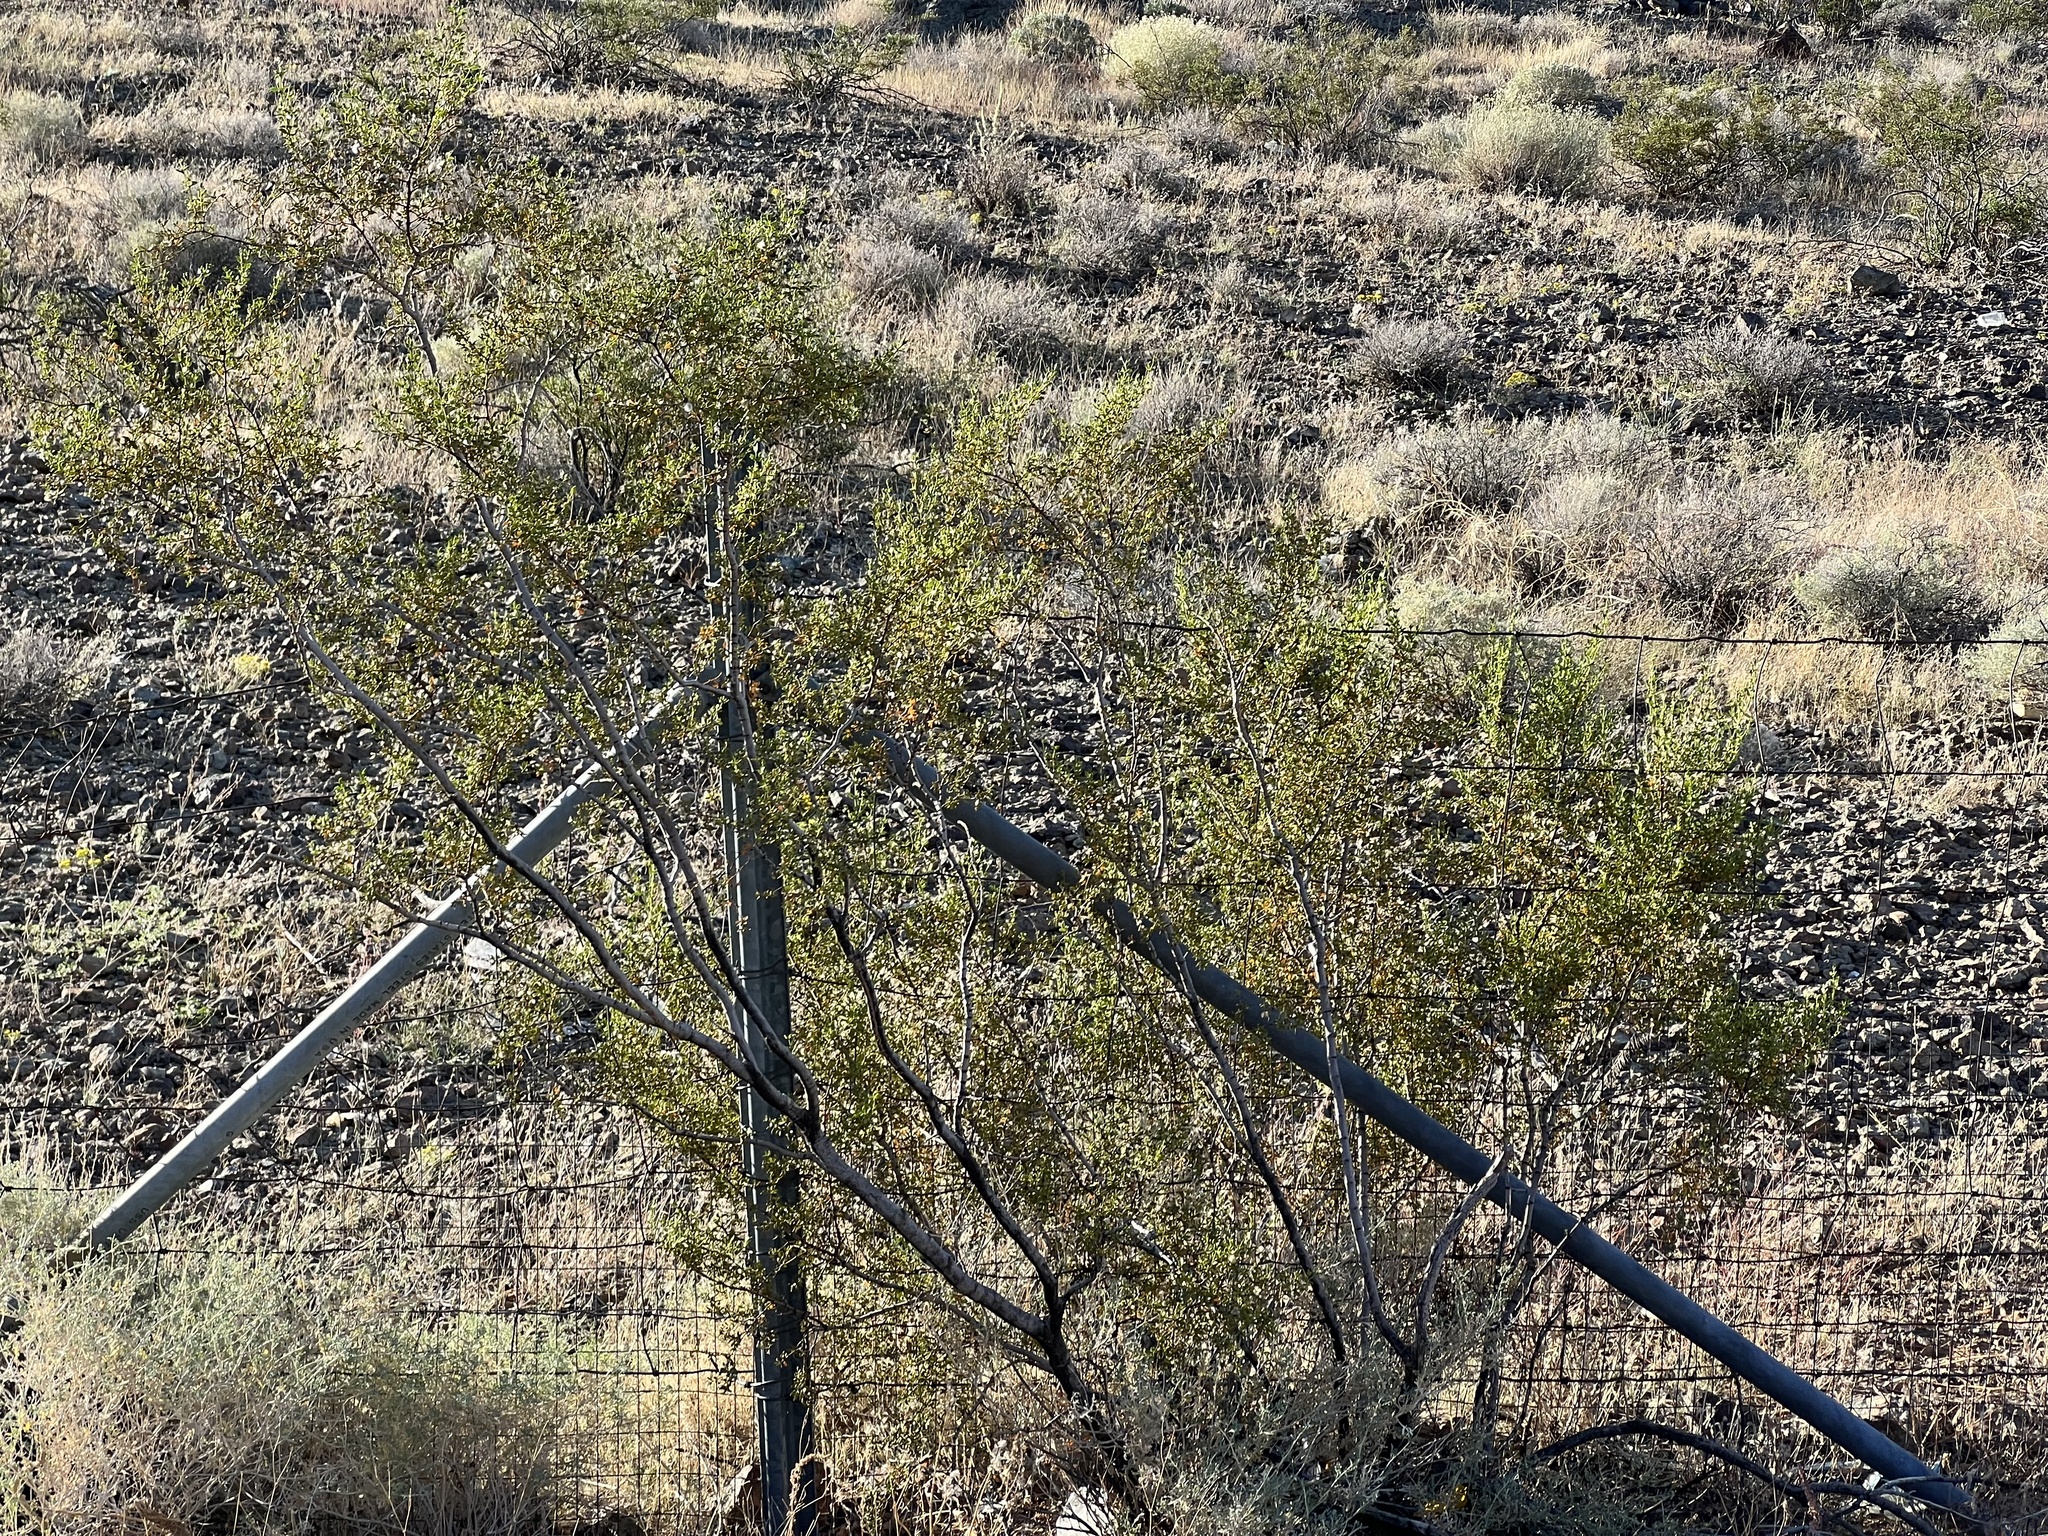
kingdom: Plantae
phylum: Tracheophyta
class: Magnoliopsida
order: Zygophyllales
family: Zygophyllaceae
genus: Larrea
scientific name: Larrea tridentata
